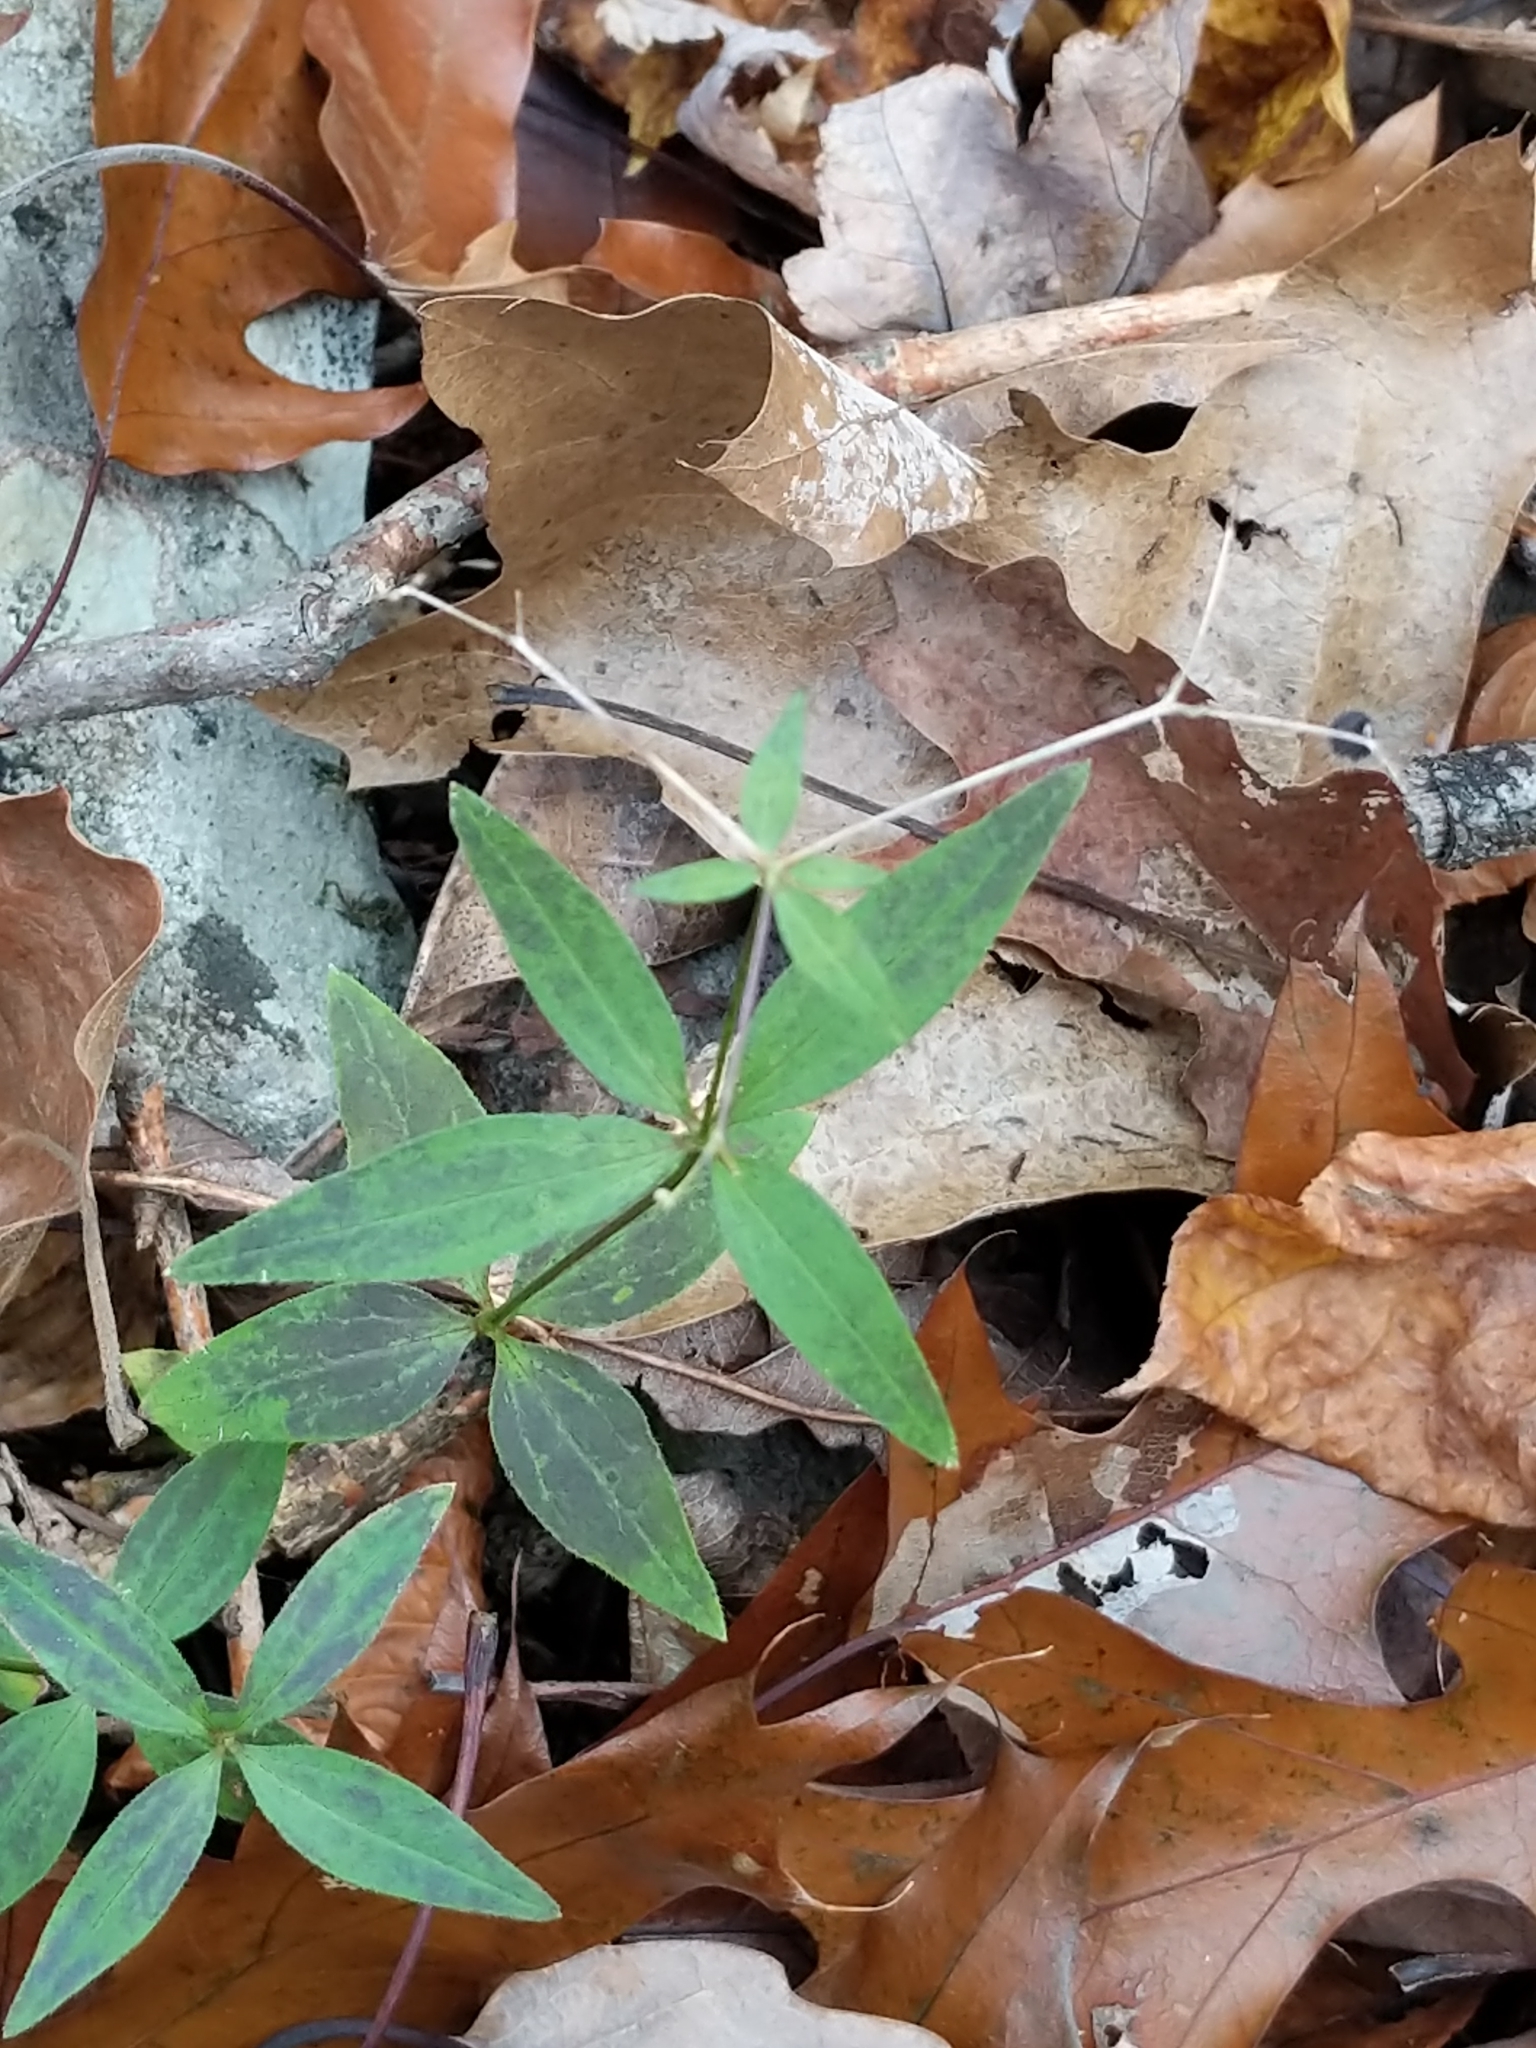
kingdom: Plantae
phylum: Tracheophyta
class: Magnoliopsida
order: Gentianales
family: Rubiaceae
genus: Galium
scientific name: Galium lanceolatum
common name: Lance-leaved wild licorice
